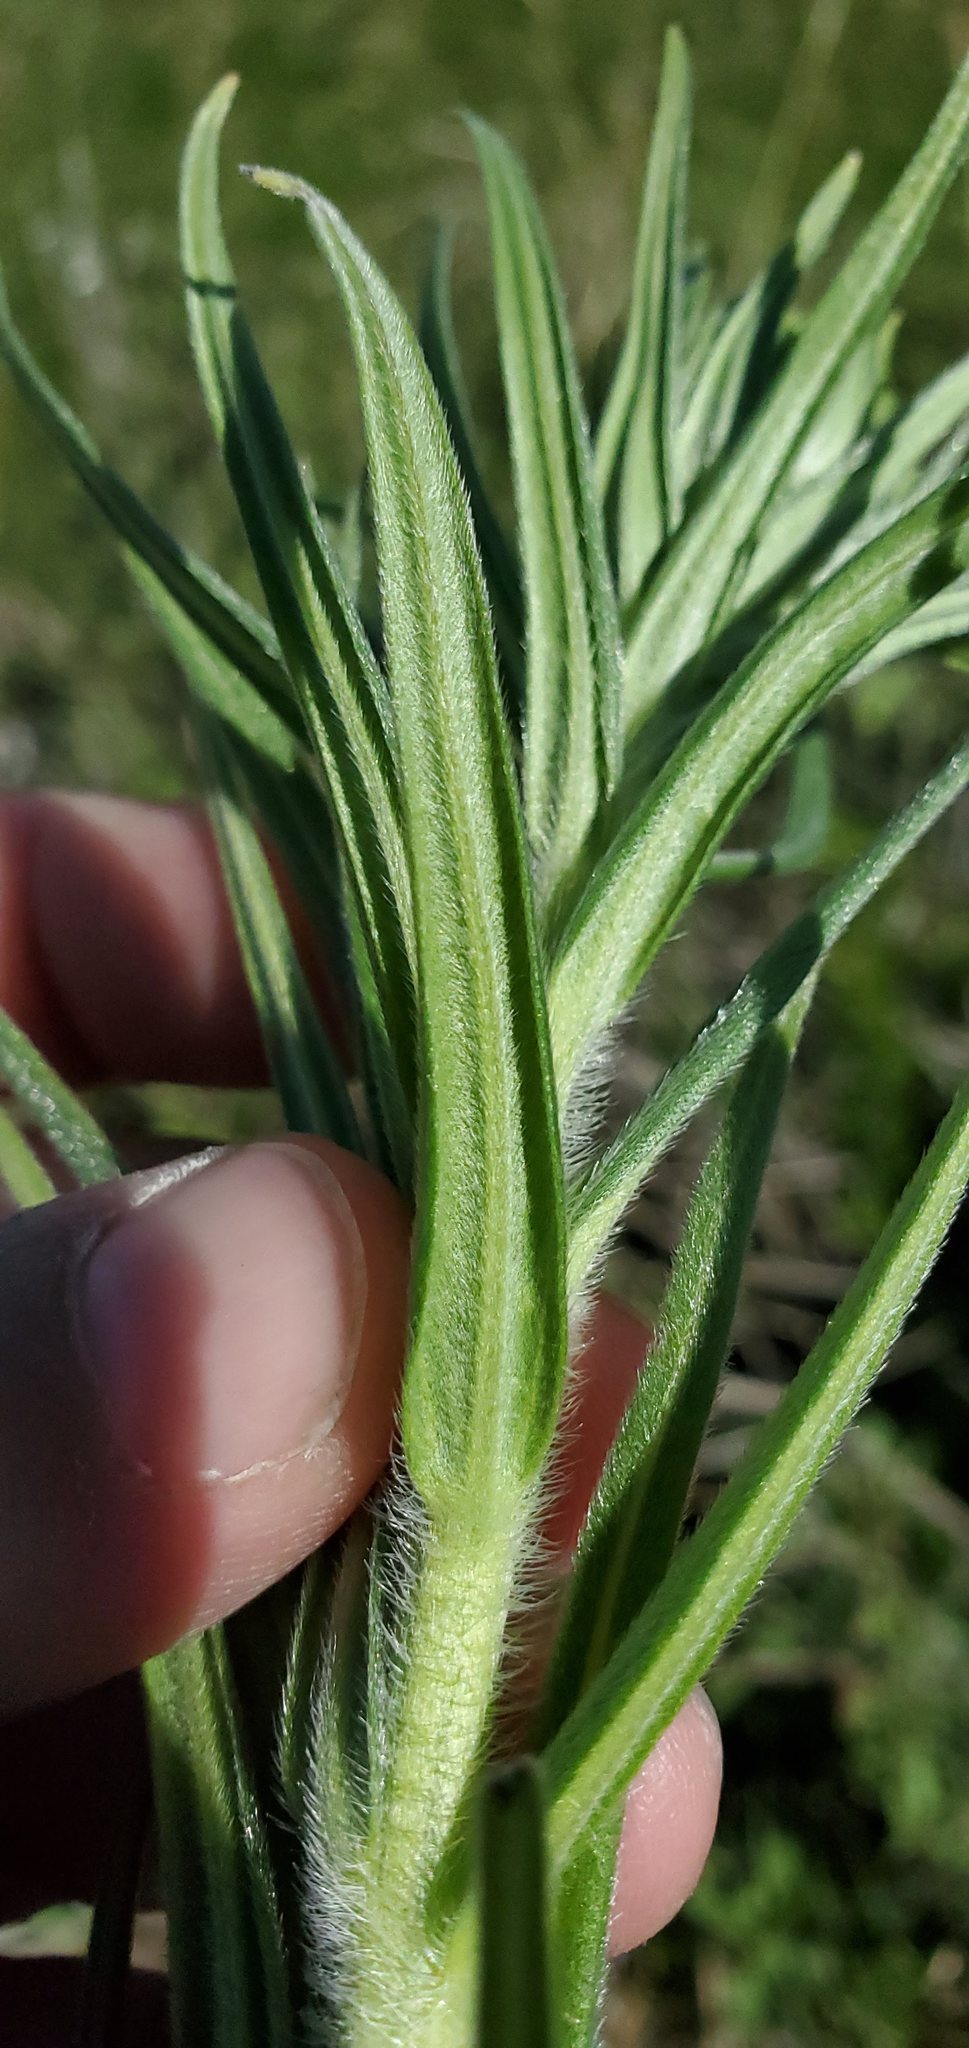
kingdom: Plantae
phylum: Tracheophyta
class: Magnoliopsida
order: Boraginales
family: Boraginaceae
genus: Lithospermum
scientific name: Lithospermum ruderale
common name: Western gromwell
